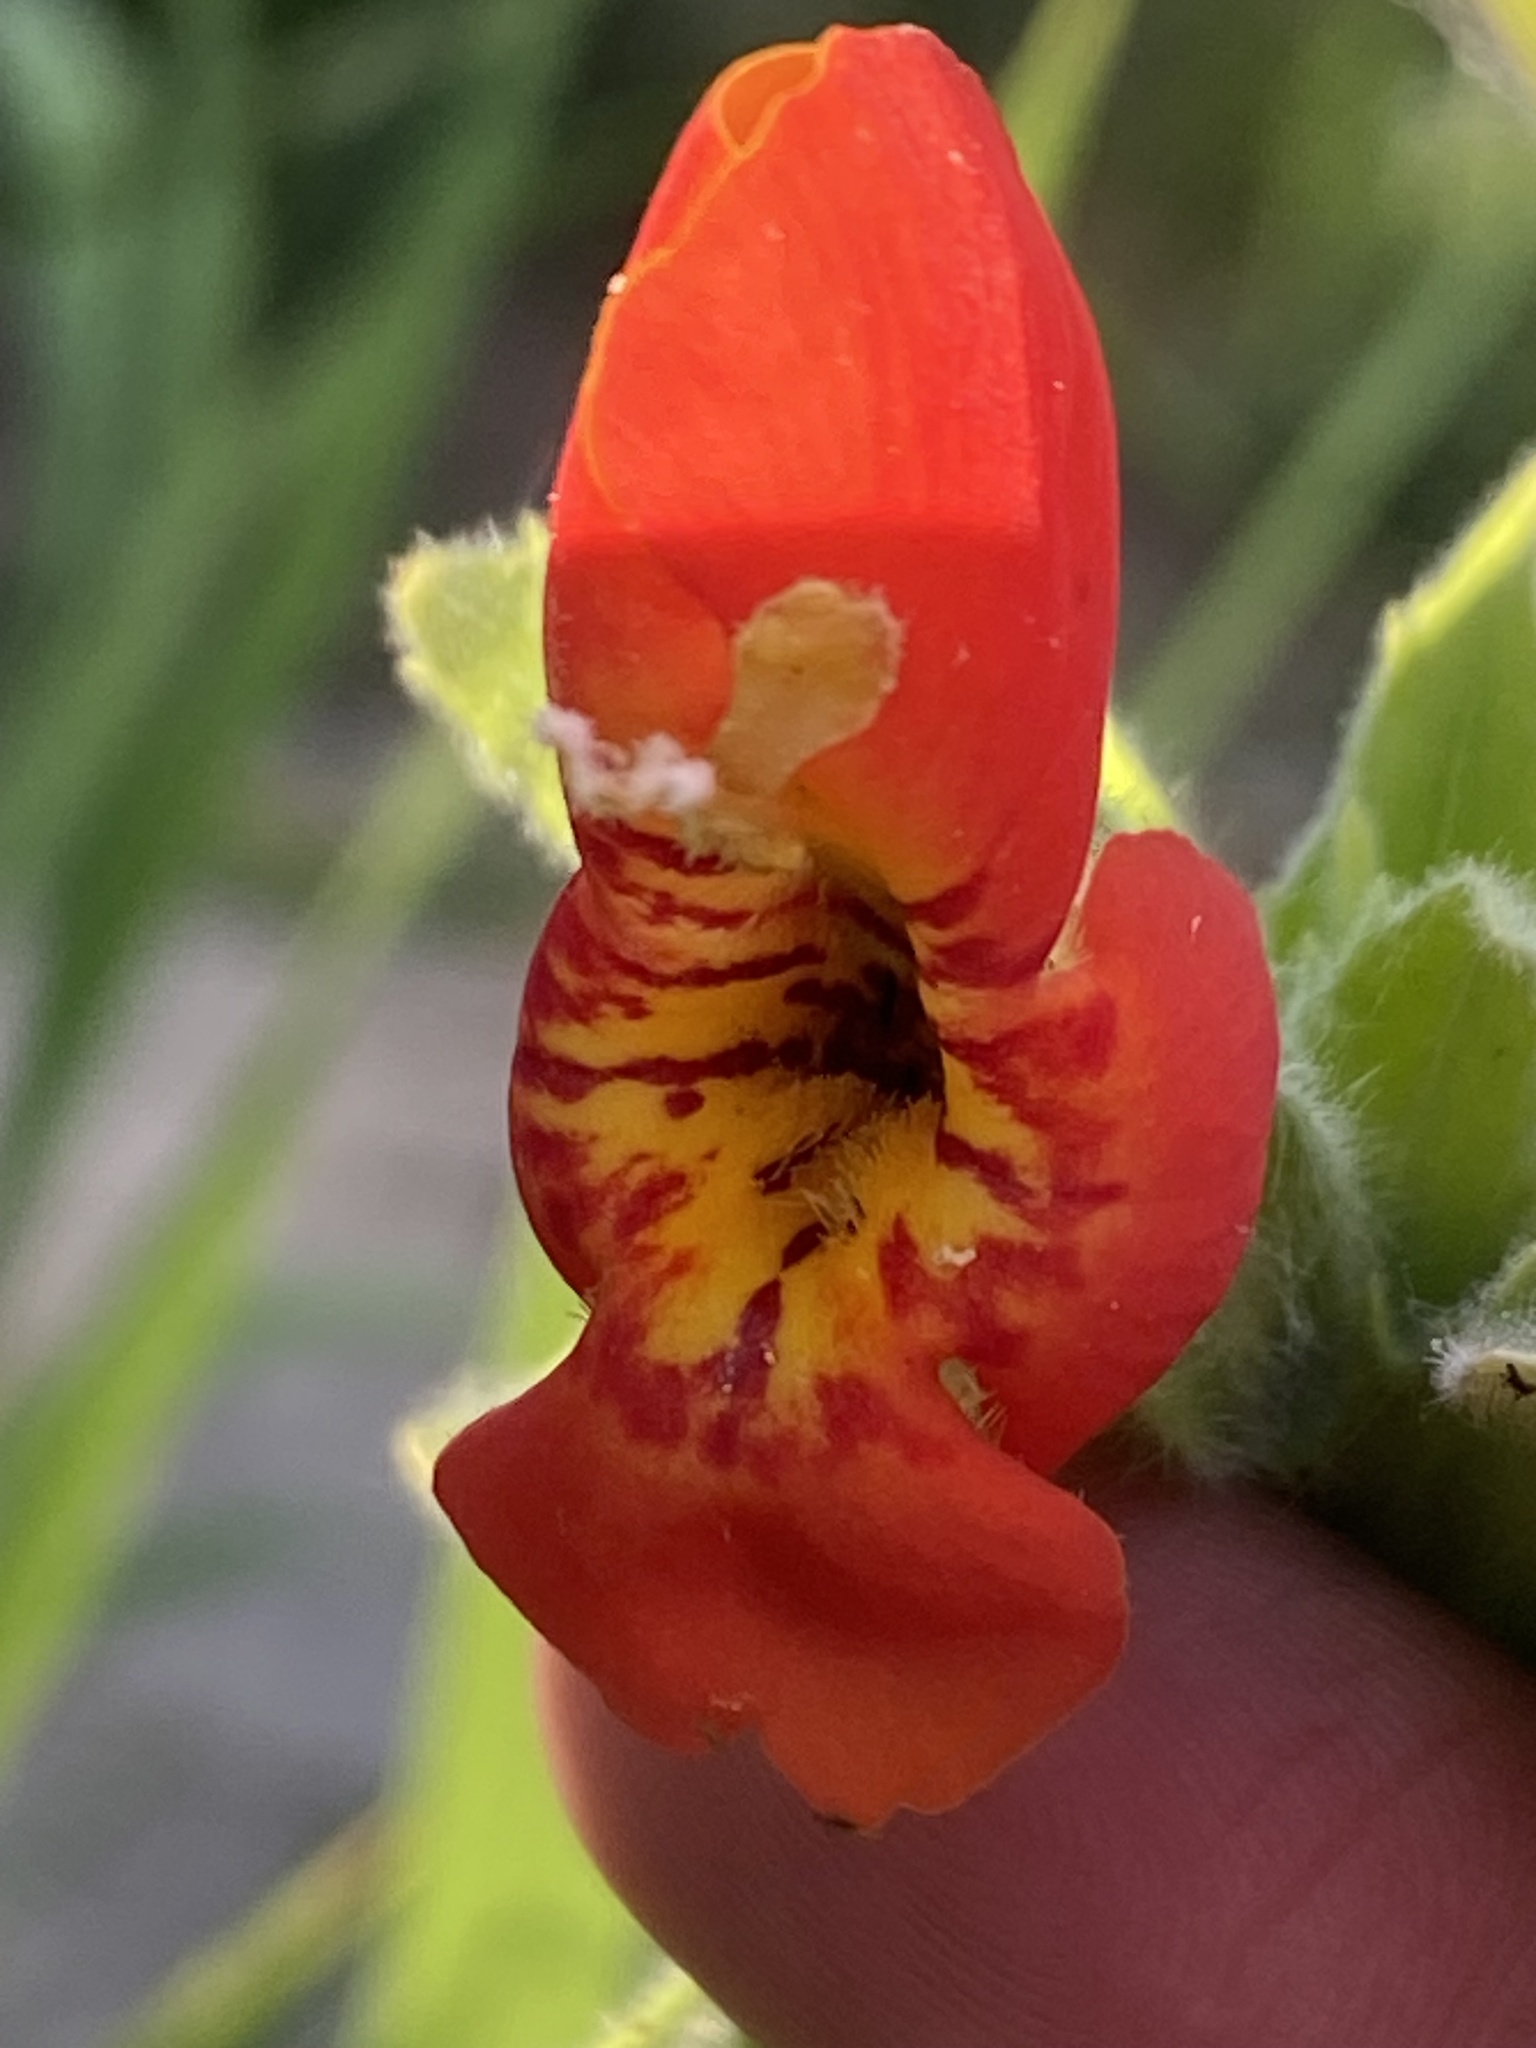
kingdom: Plantae
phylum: Tracheophyta
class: Magnoliopsida
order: Lamiales
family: Phrymaceae
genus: Erythranthe
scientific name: Erythranthe cardinalis
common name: Scarlet monkey-flower
